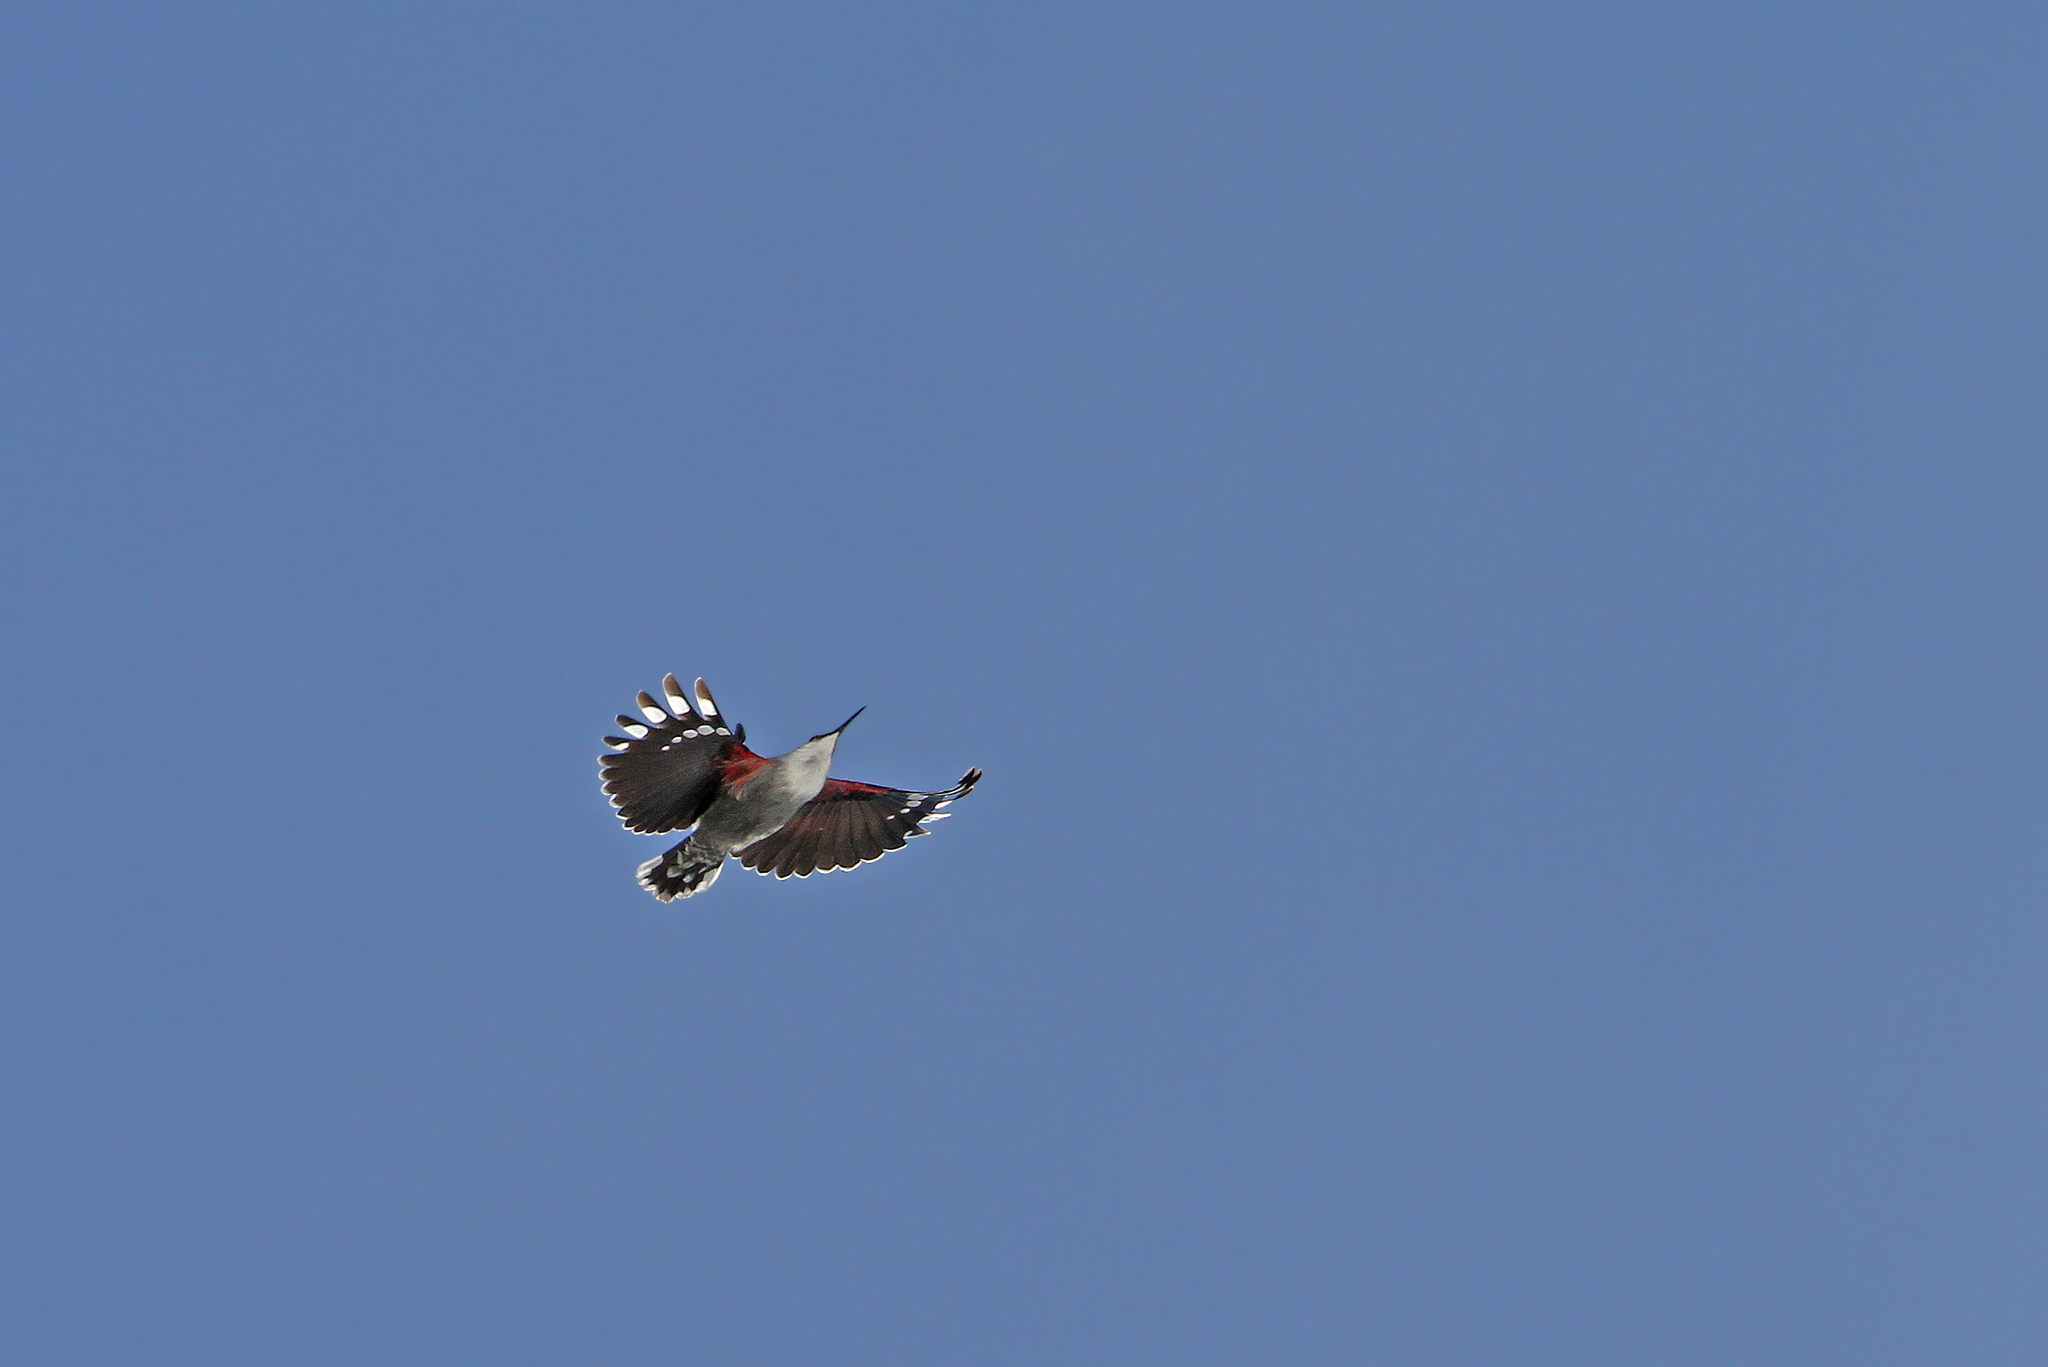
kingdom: Animalia
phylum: Chordata
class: Aves
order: Passeriformes
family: Tichodromidae
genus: Tichodroma
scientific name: Tichodroma muraria
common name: Wallcreeper
